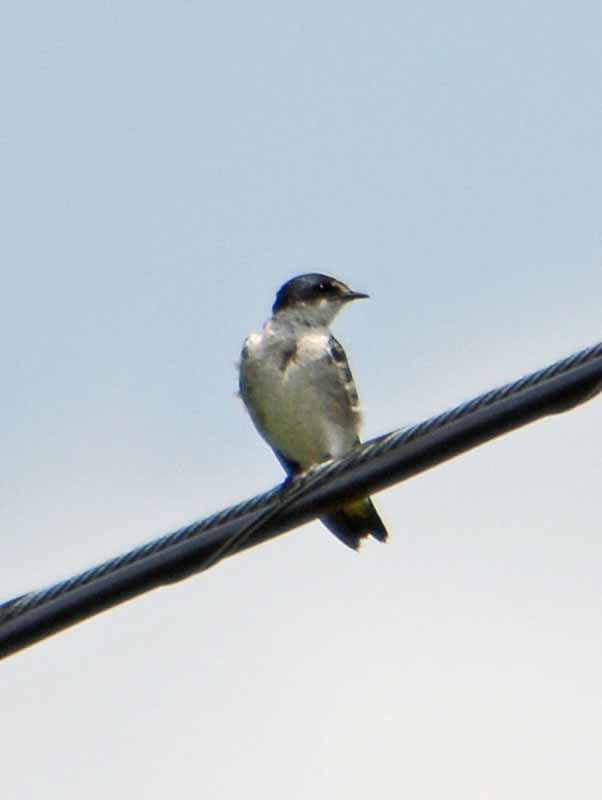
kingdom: Animalia
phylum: Chordata
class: Aves
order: Passeriformes
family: Hirundinidae
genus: Tachycineta
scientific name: Tachycineta albilinea
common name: Mangrove swallow
